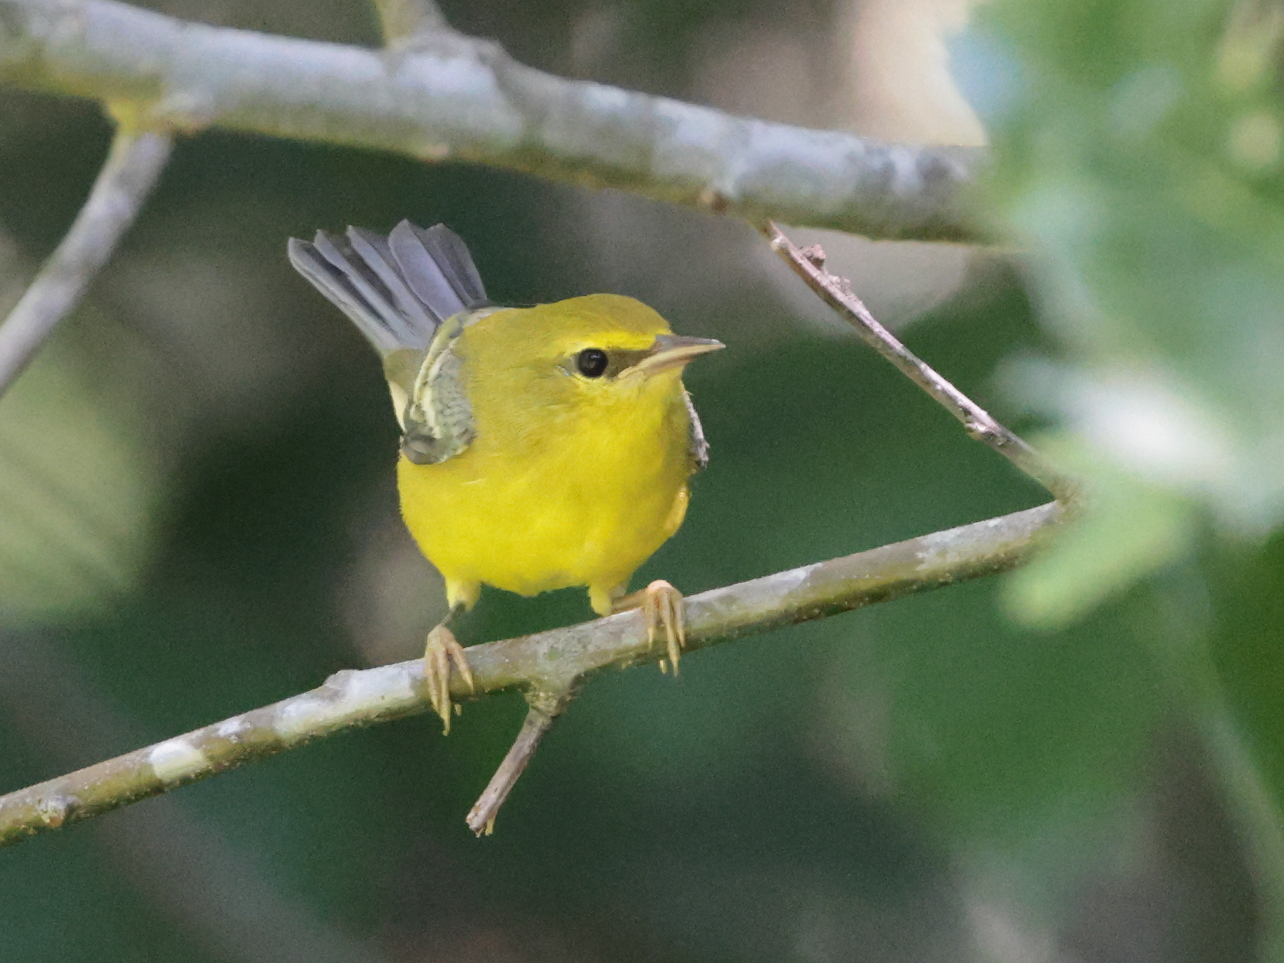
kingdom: Animalia
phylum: Chordata
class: Aves
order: Passeriformes
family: Parulidae
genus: Vermivora
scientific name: Vermivora cyanoptera
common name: Blue-winged warbler
